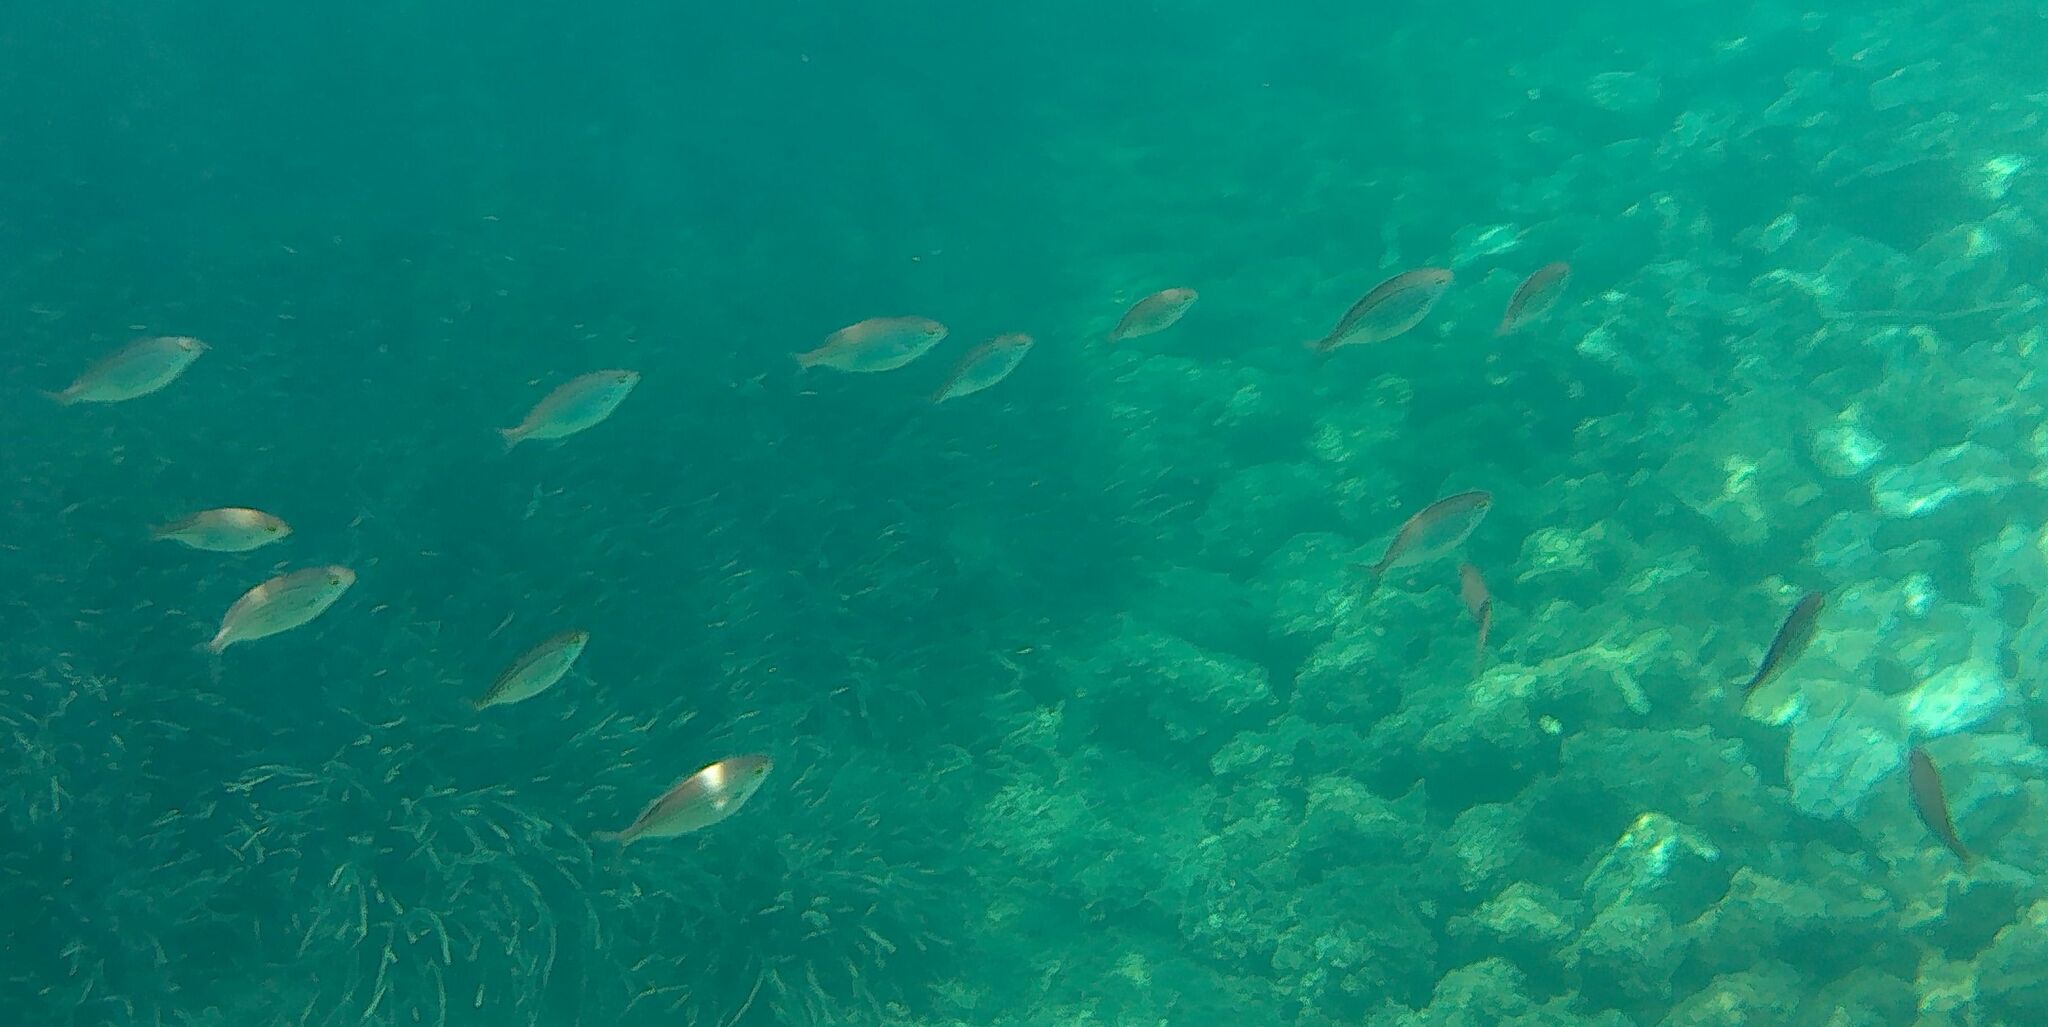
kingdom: Animalia
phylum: Chordata
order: Perciformes
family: Sparidae
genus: Sarpa
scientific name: Sarpa salpa
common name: Salema
